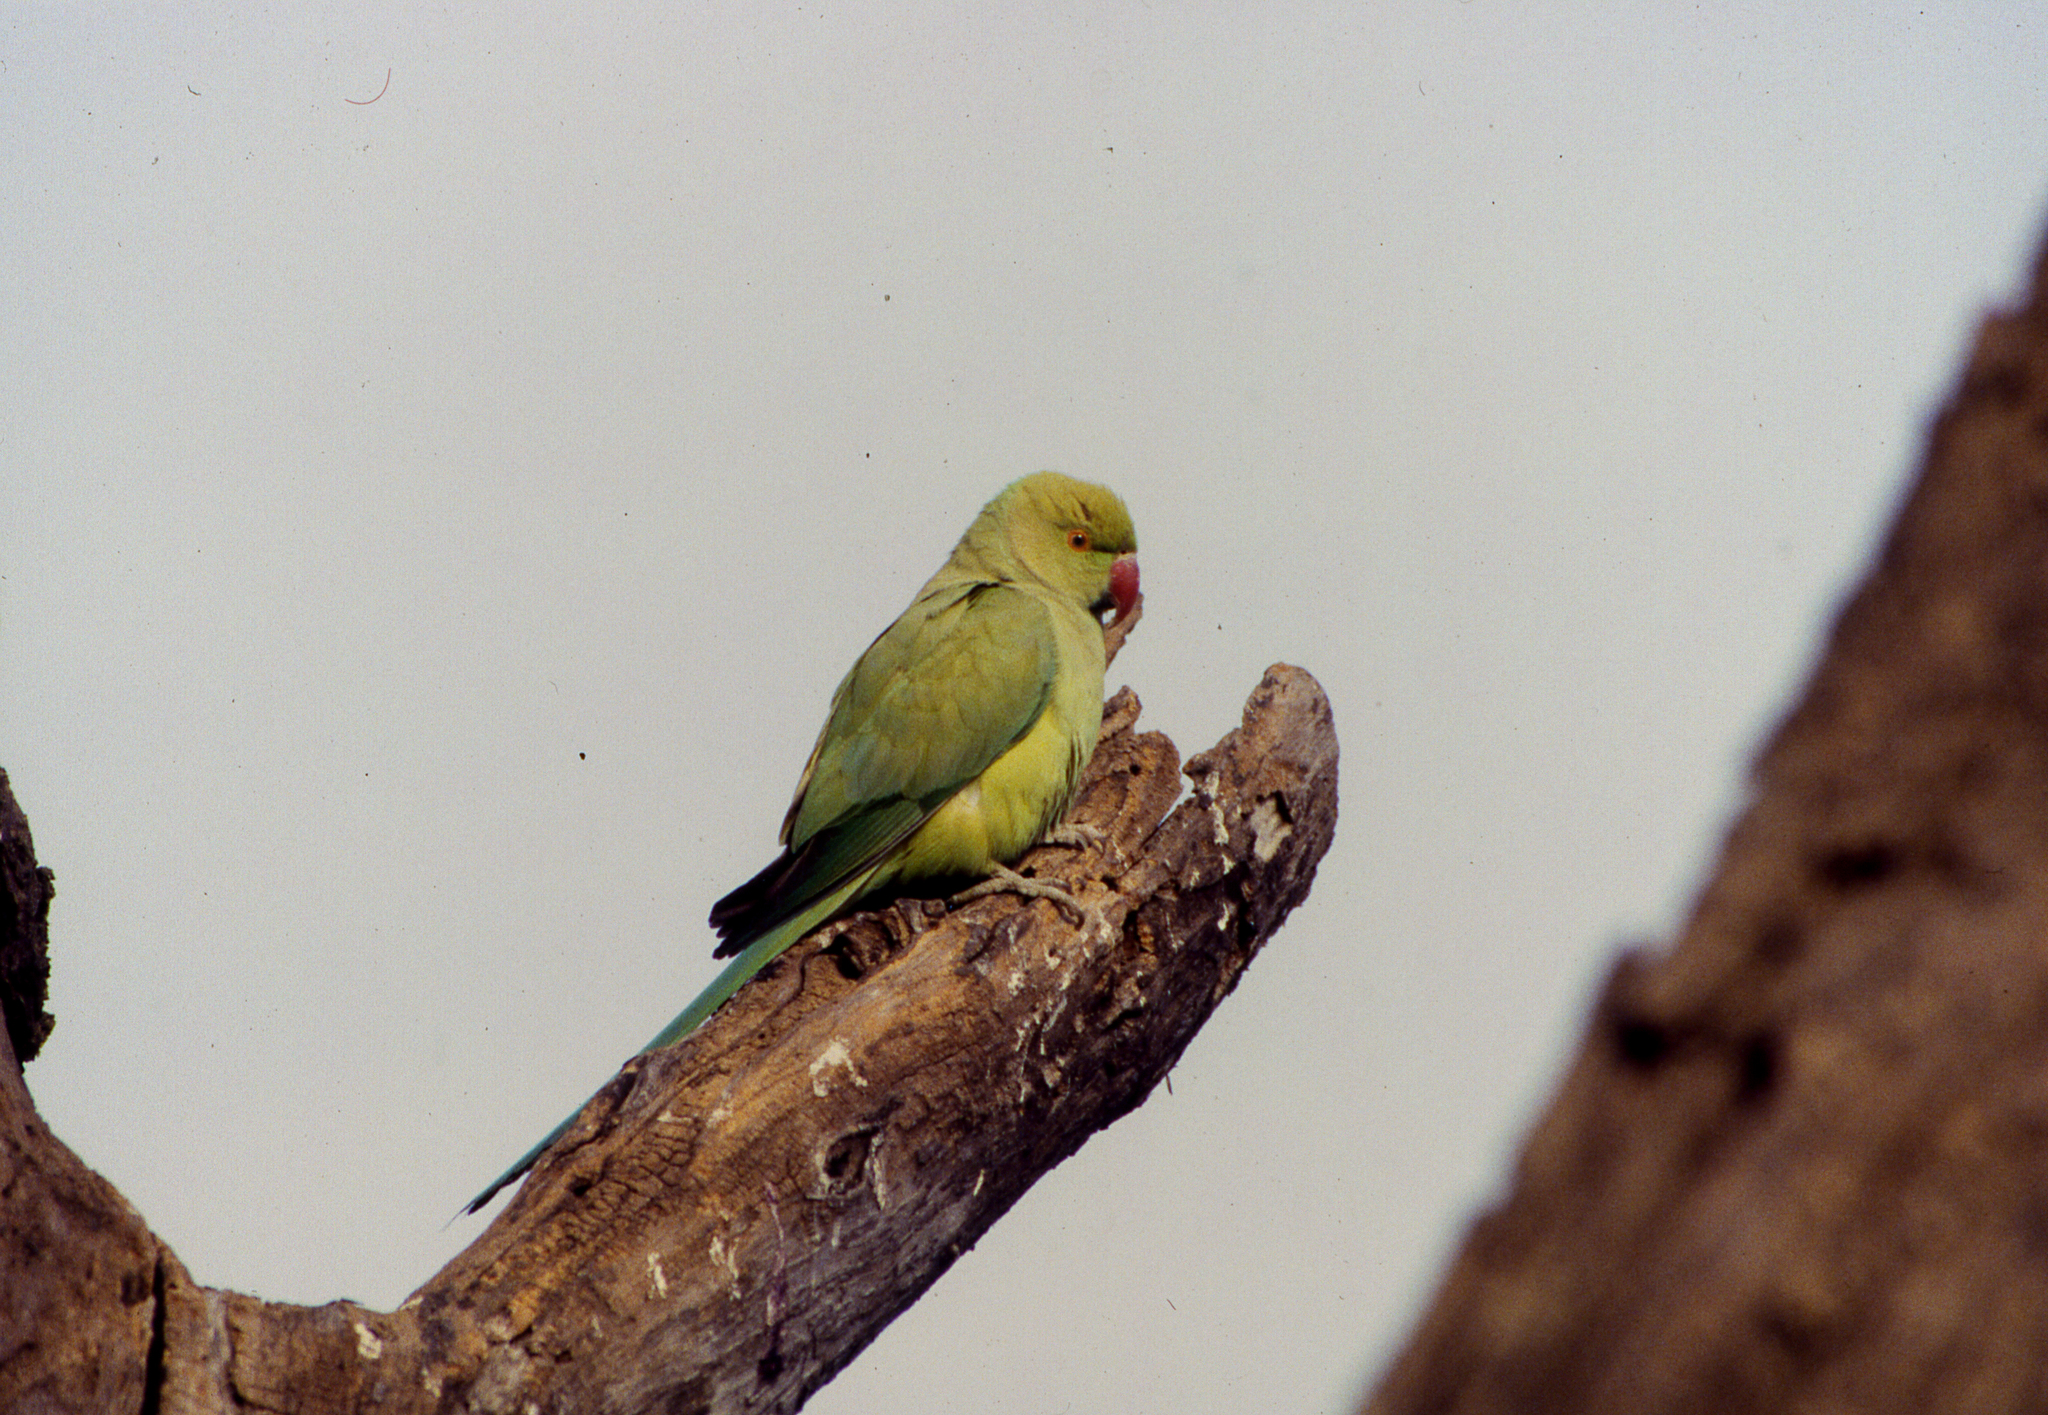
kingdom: Animalia
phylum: Chordata
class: Aves
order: Psittaciformes
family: Psittacidae
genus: Psittacula
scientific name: Psittacula krameri
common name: Rose-ringed parakeet
